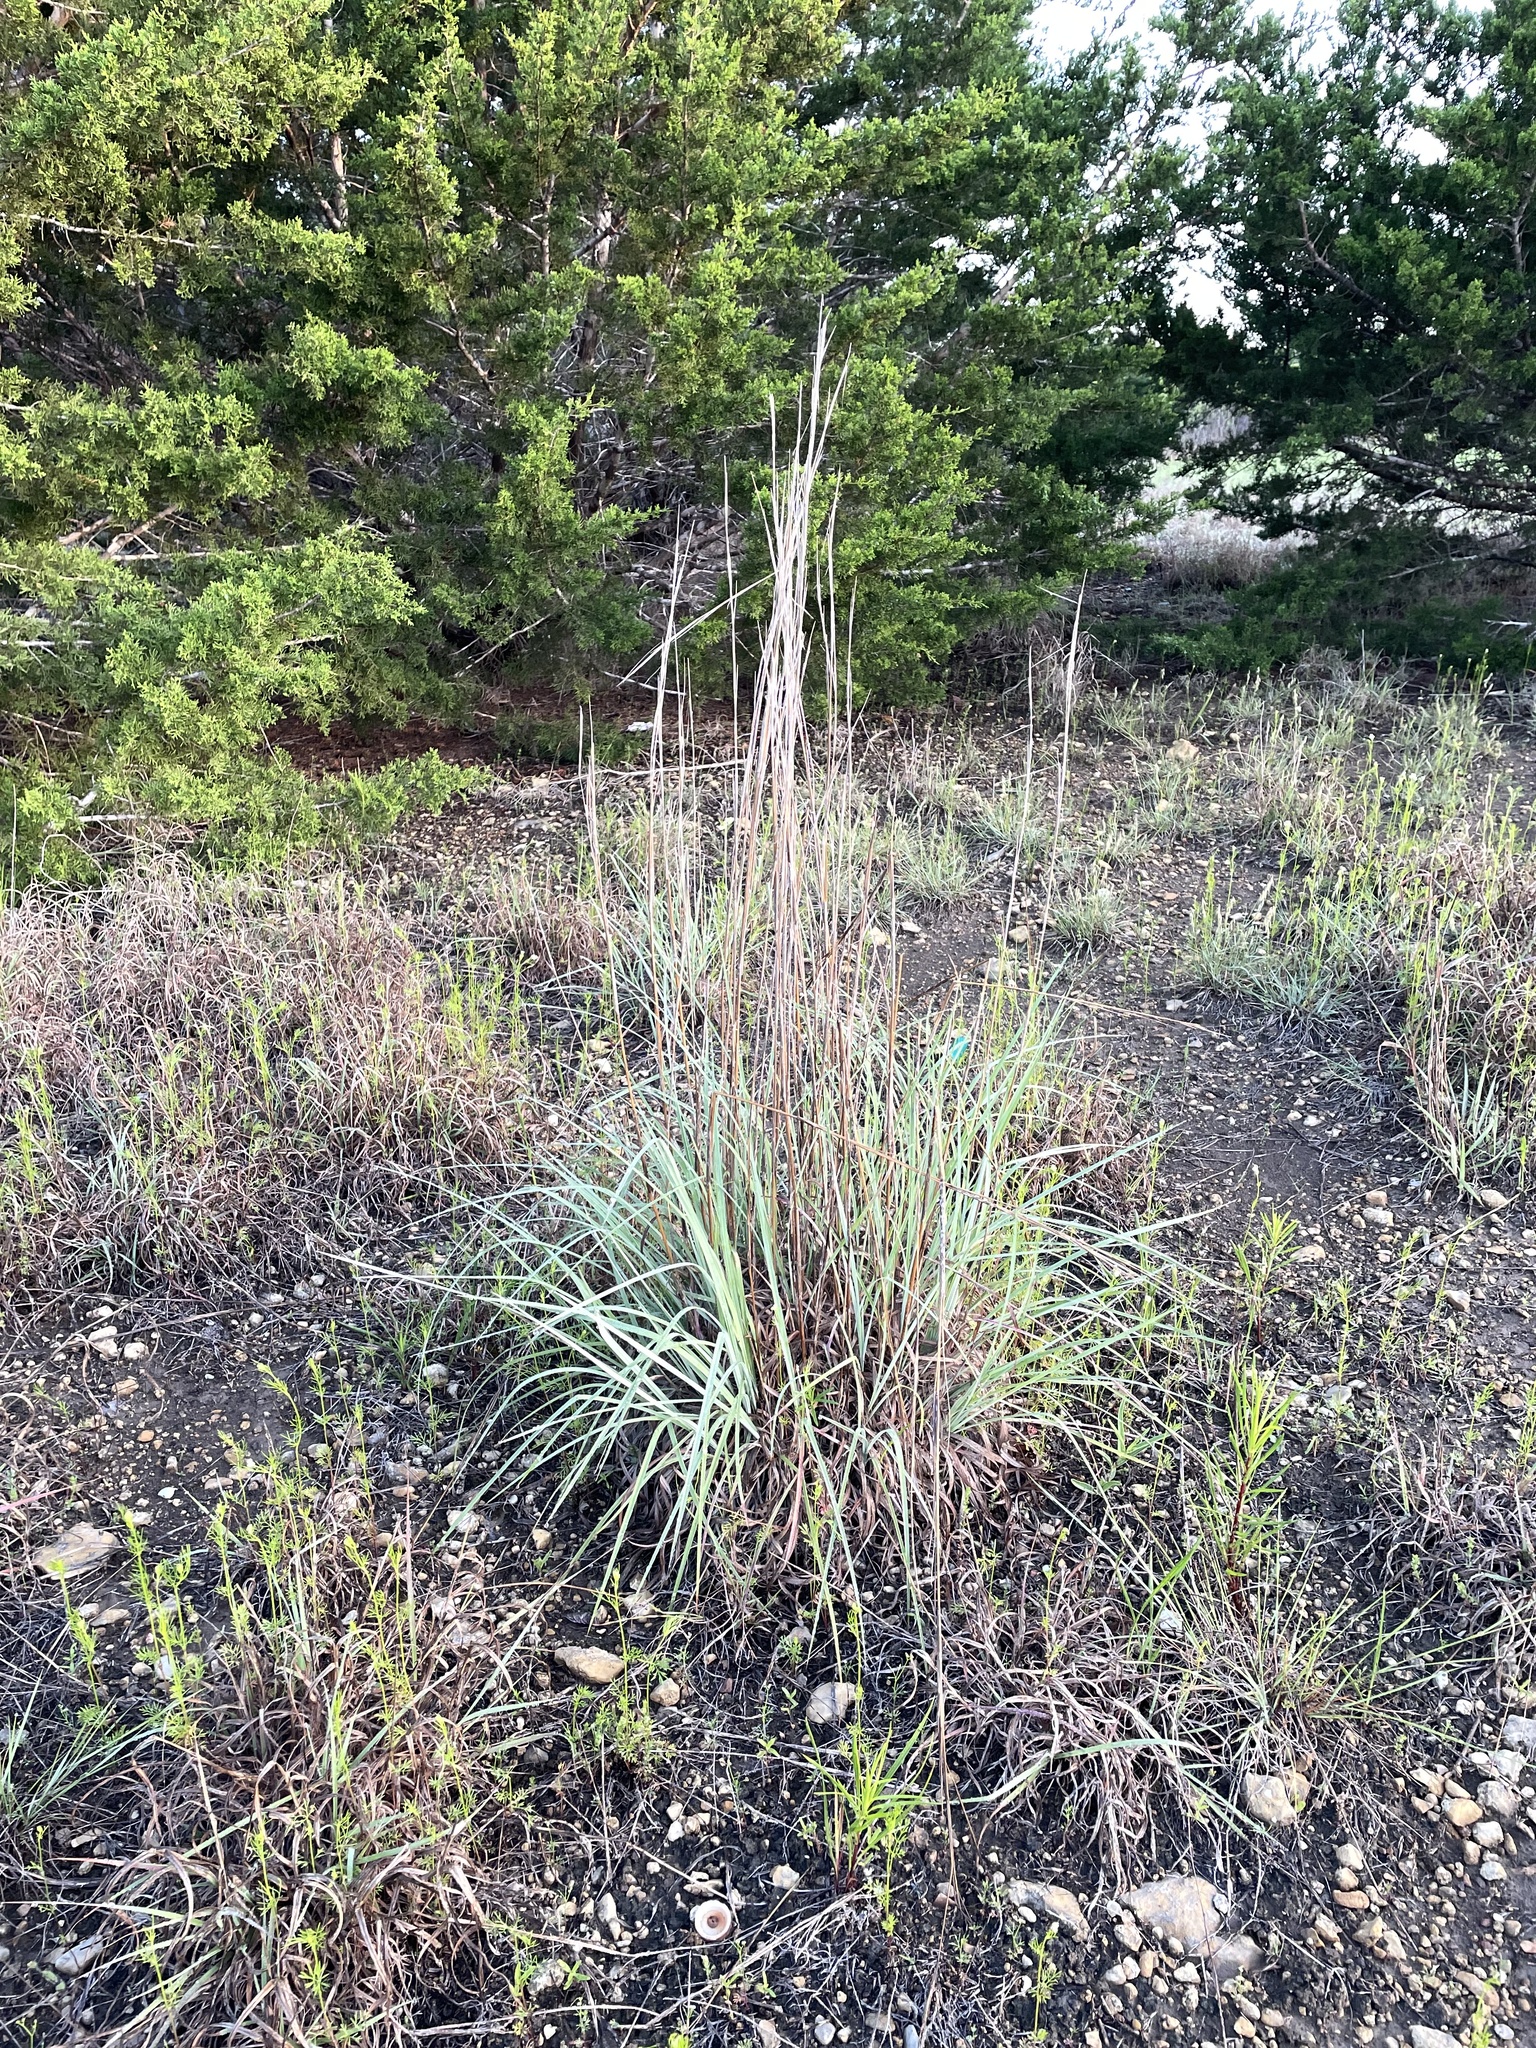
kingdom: Plantae
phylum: Tracheophyta
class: Liliopsida
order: Poales
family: Poaceae
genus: Schizachyrium
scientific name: Schizachyrium scoparium
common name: Little bluestem
